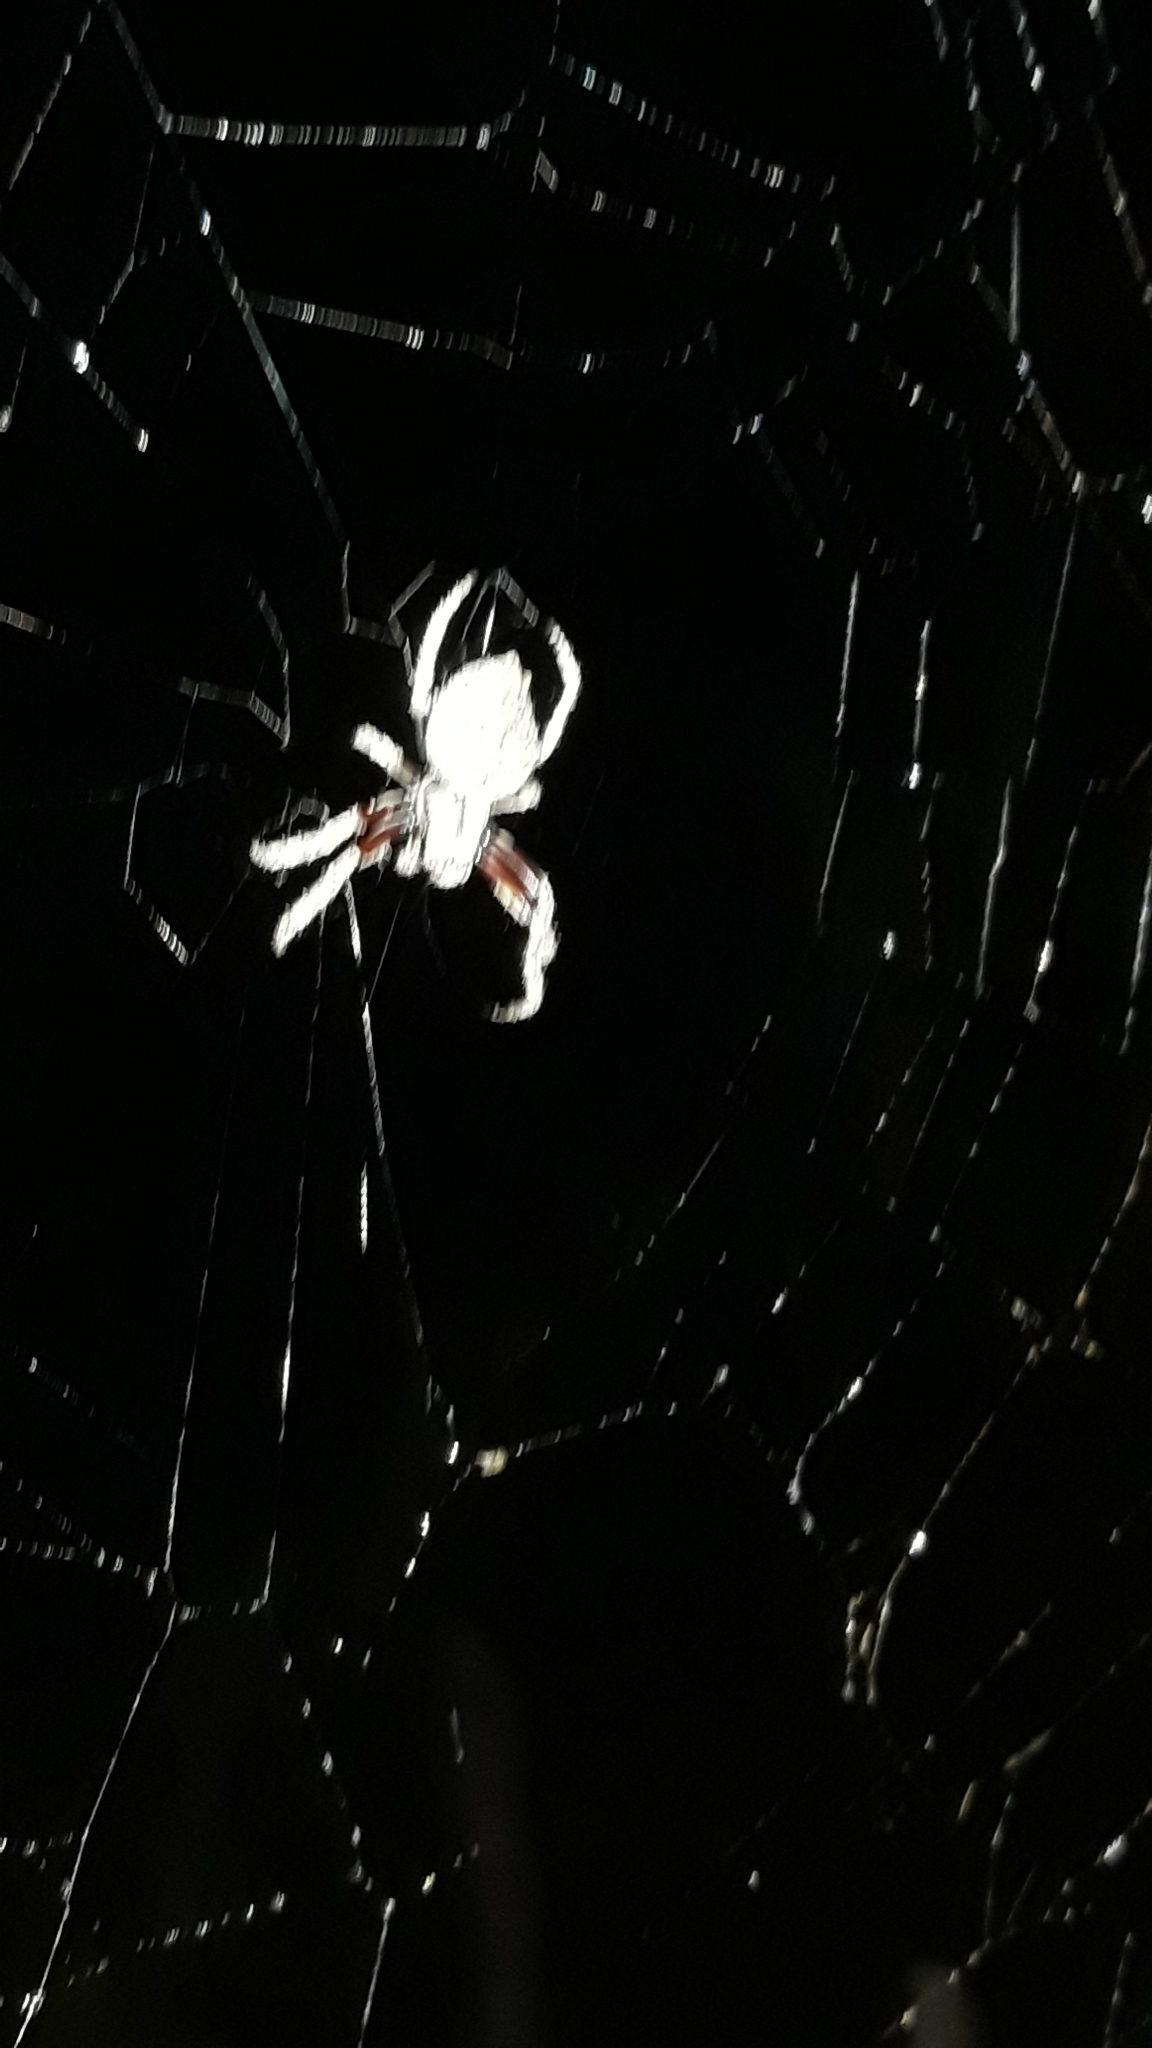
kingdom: Animalia
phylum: Arthropoda
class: Arachnida
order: Araneae
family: Araneidae
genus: Eriophora
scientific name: Eriophora pustulosa
